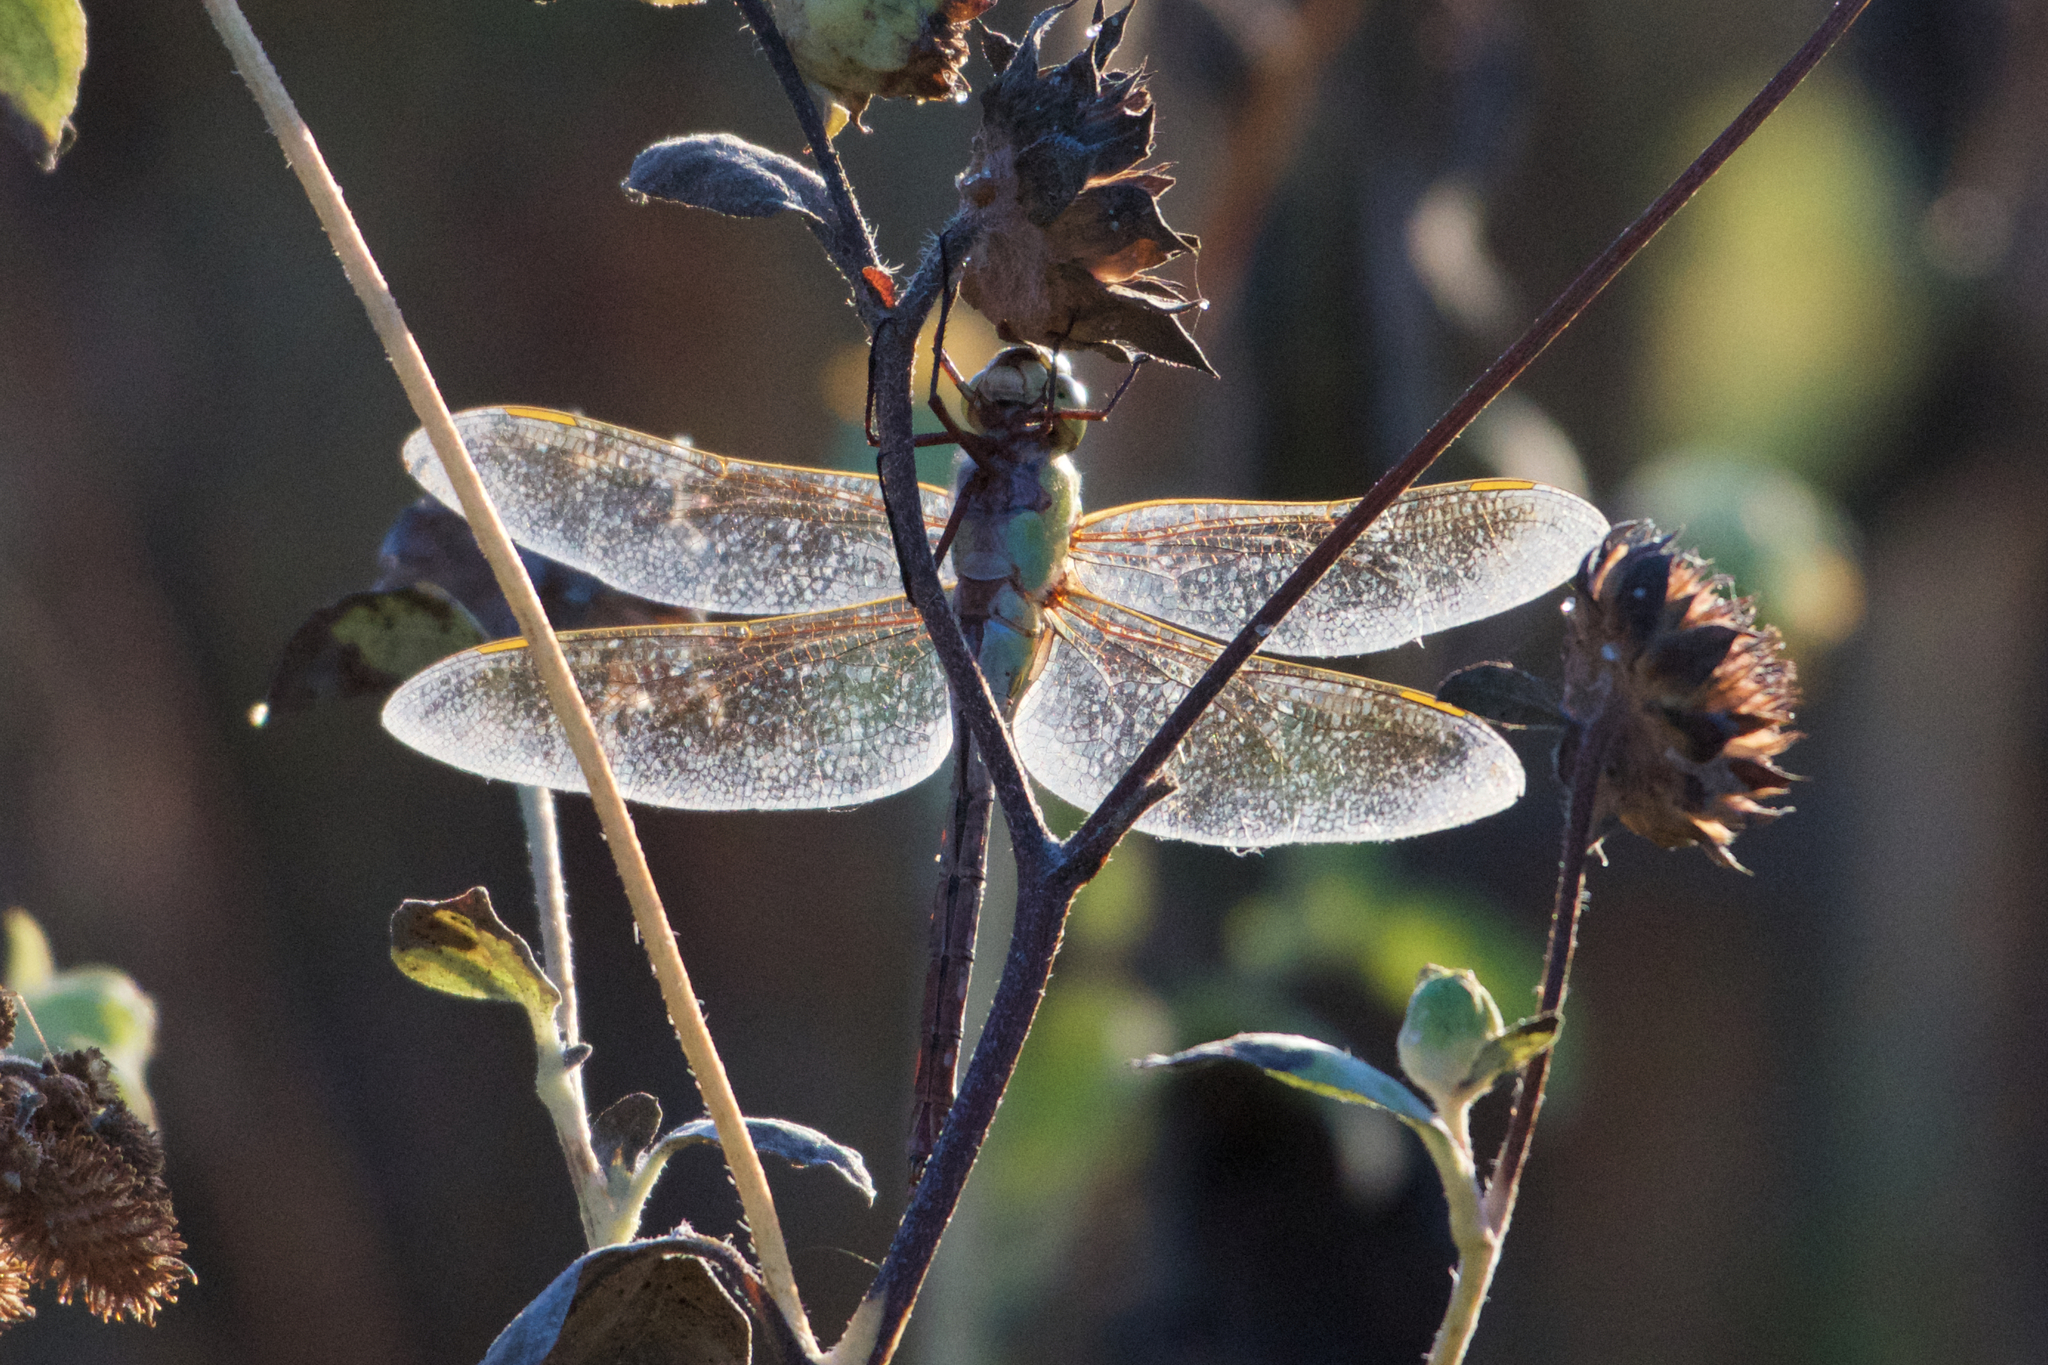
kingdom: Animalia
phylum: Arthropoda
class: Insecta
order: Odonata
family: Aeshnidae
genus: Anax
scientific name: Anax junius
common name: Common green darner
